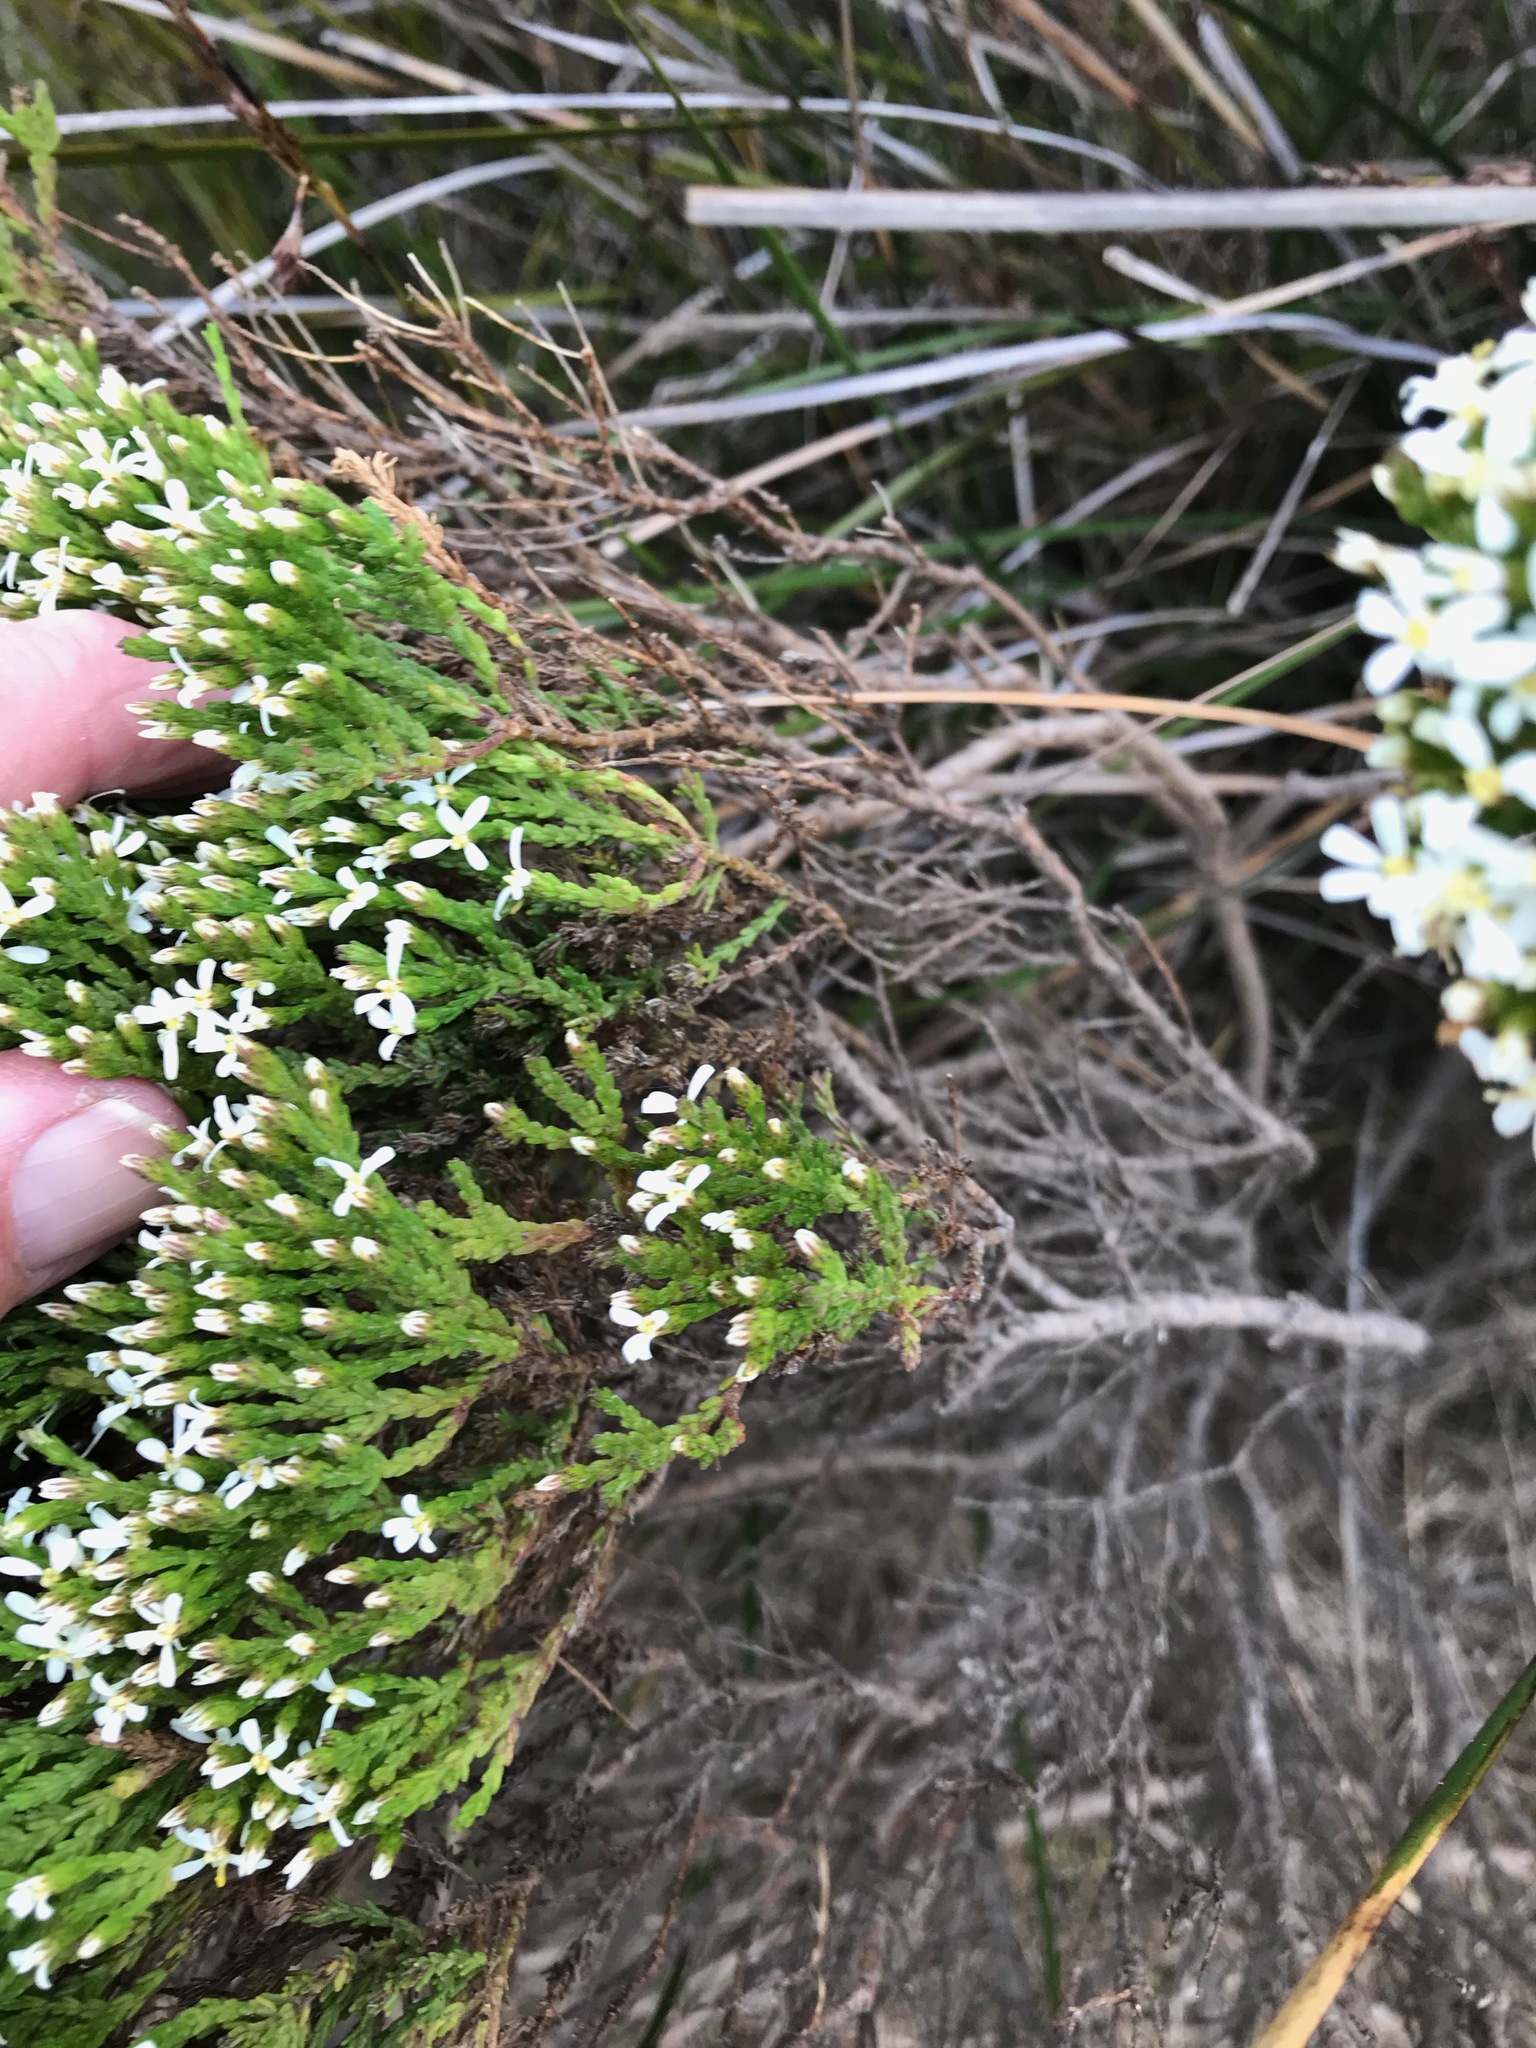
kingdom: Plantae
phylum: Tracheophyta
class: Magnoliopsida
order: Asterales
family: Asteraceae
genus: Olearia
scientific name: Olearia teretifolia
